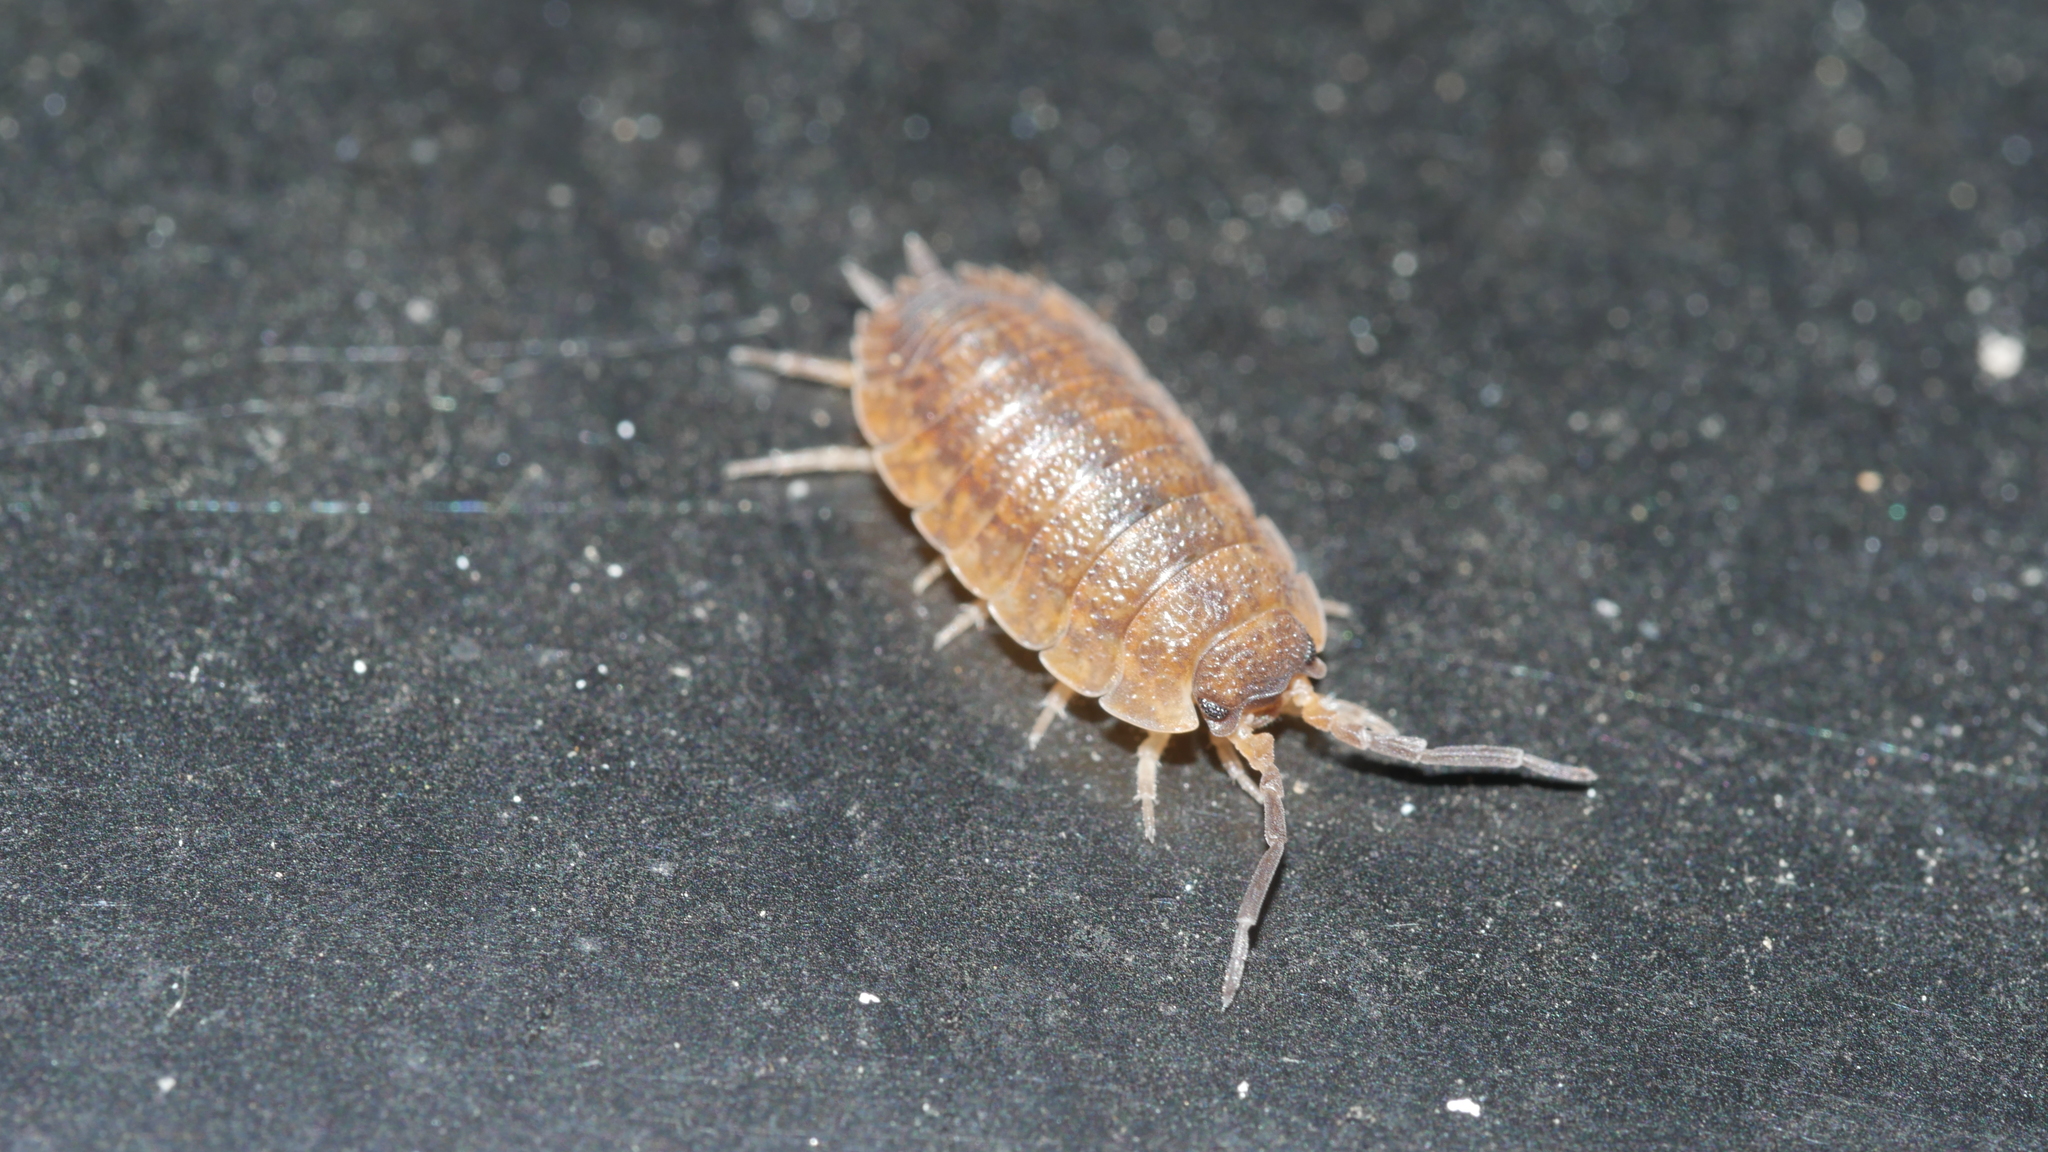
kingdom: Animalia
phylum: Arthropoda
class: Malacostraca
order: Isopoda
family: Porcellionidae
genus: Porcellio
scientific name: Porcellio scaber
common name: Common rough woodlouse
